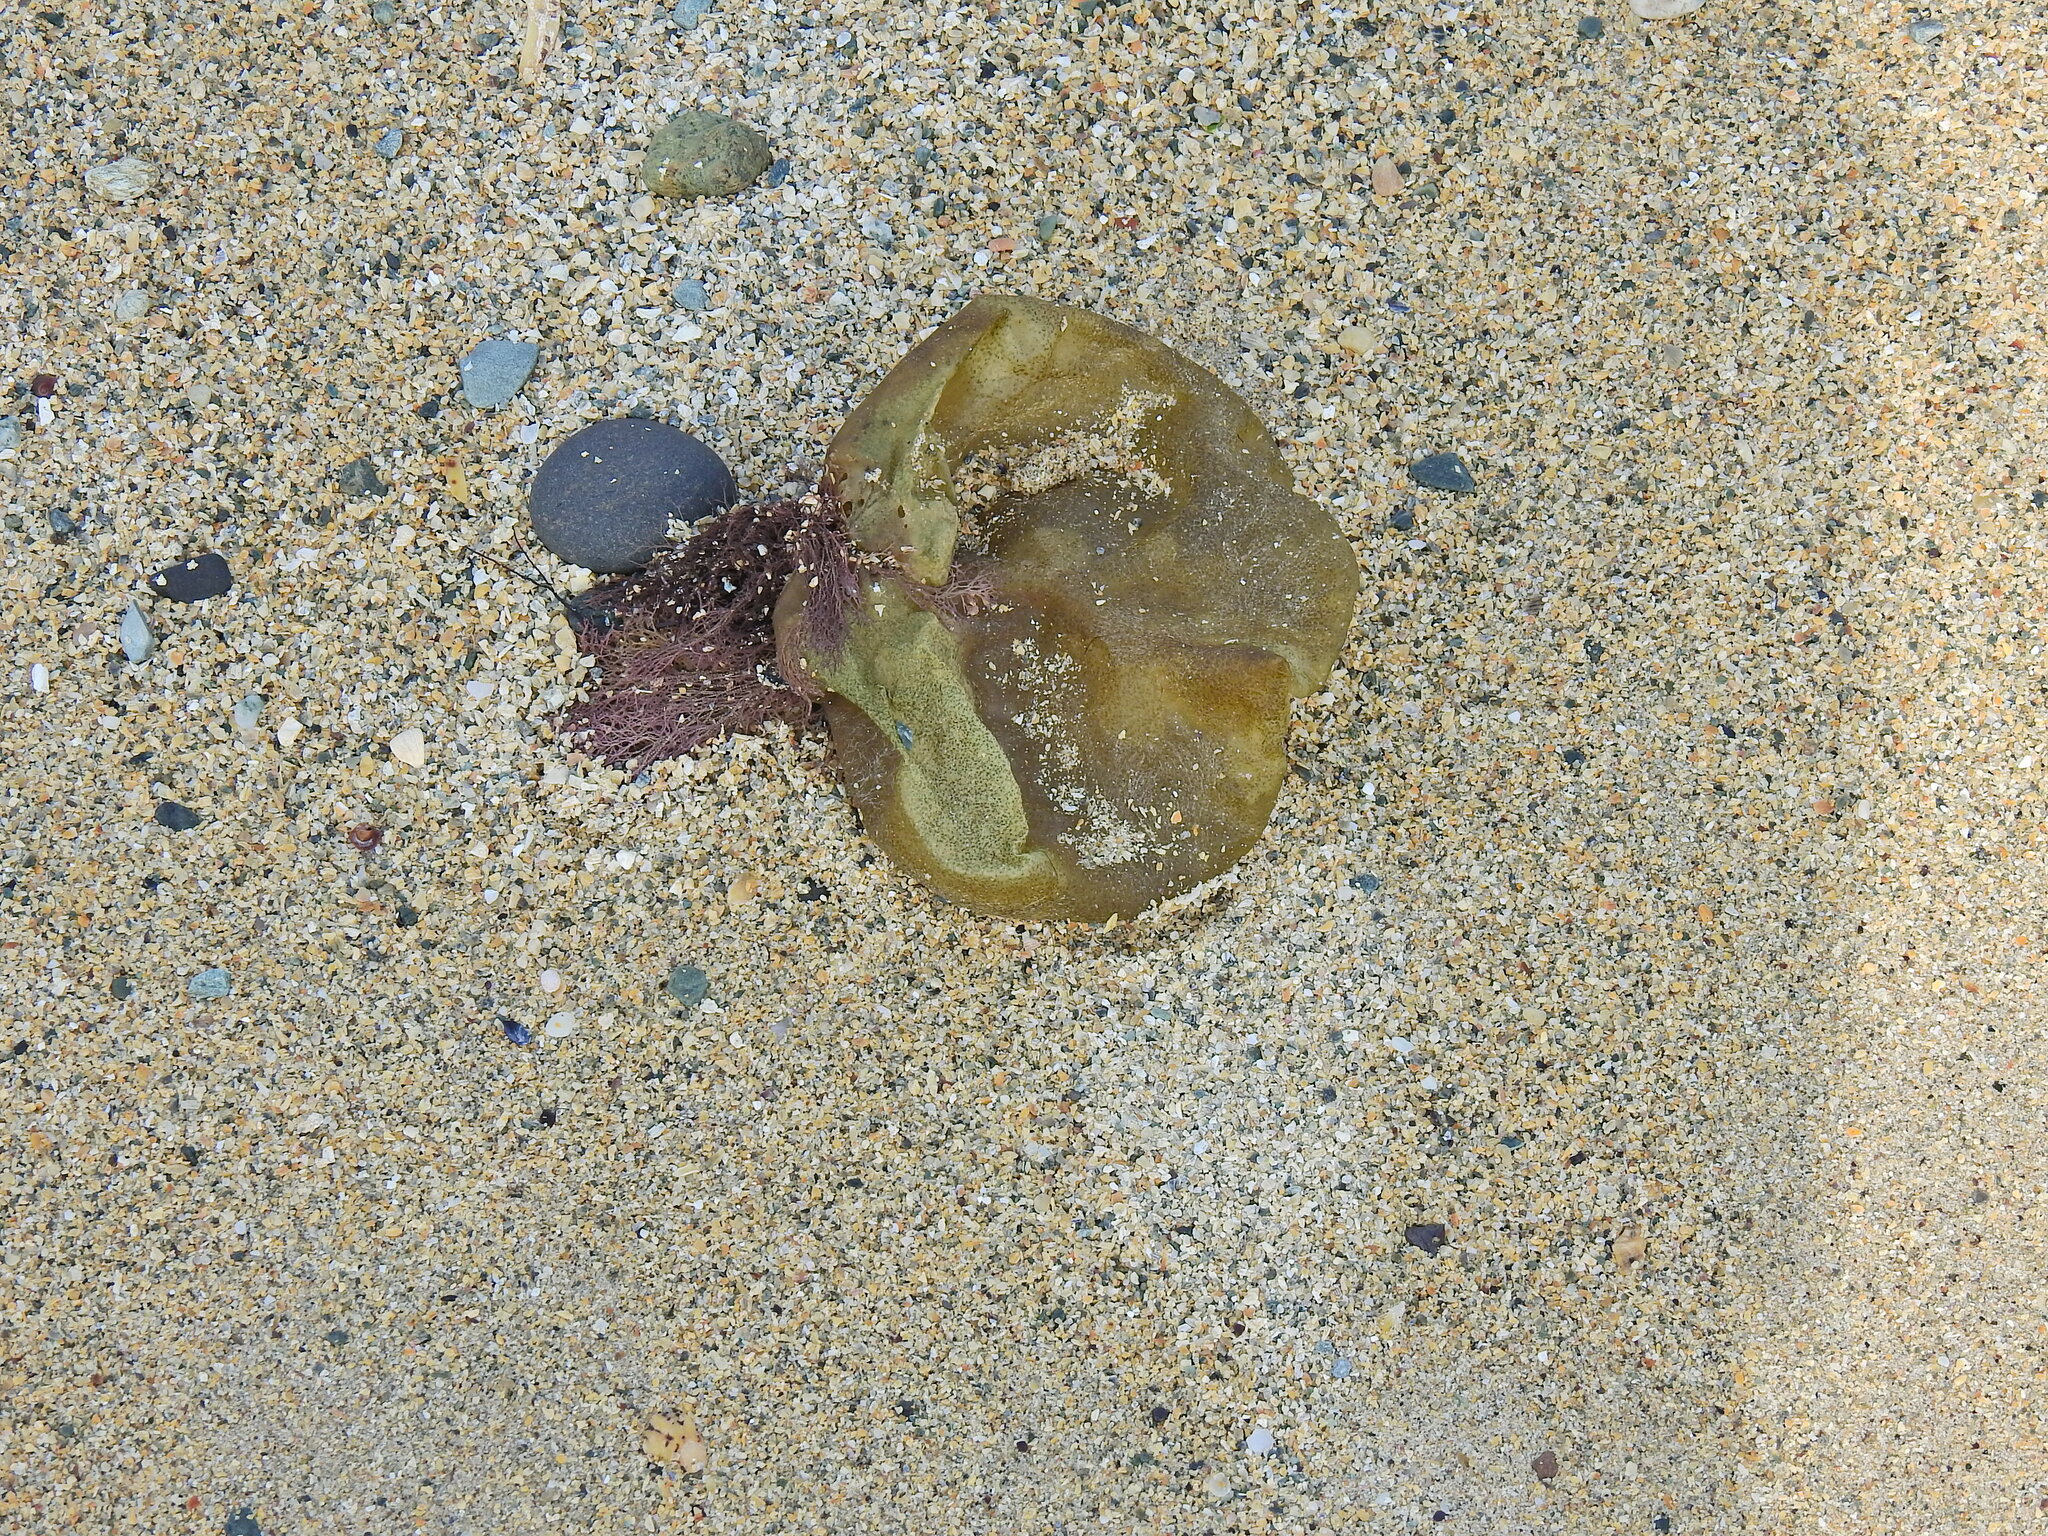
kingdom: Chromista
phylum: Ochrophyta
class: Phaeophyceae
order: Scytosiphonales
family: Scytosiphonaceae
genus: Colpomenia
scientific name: Colpomenia peregrina
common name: Oyster thief
